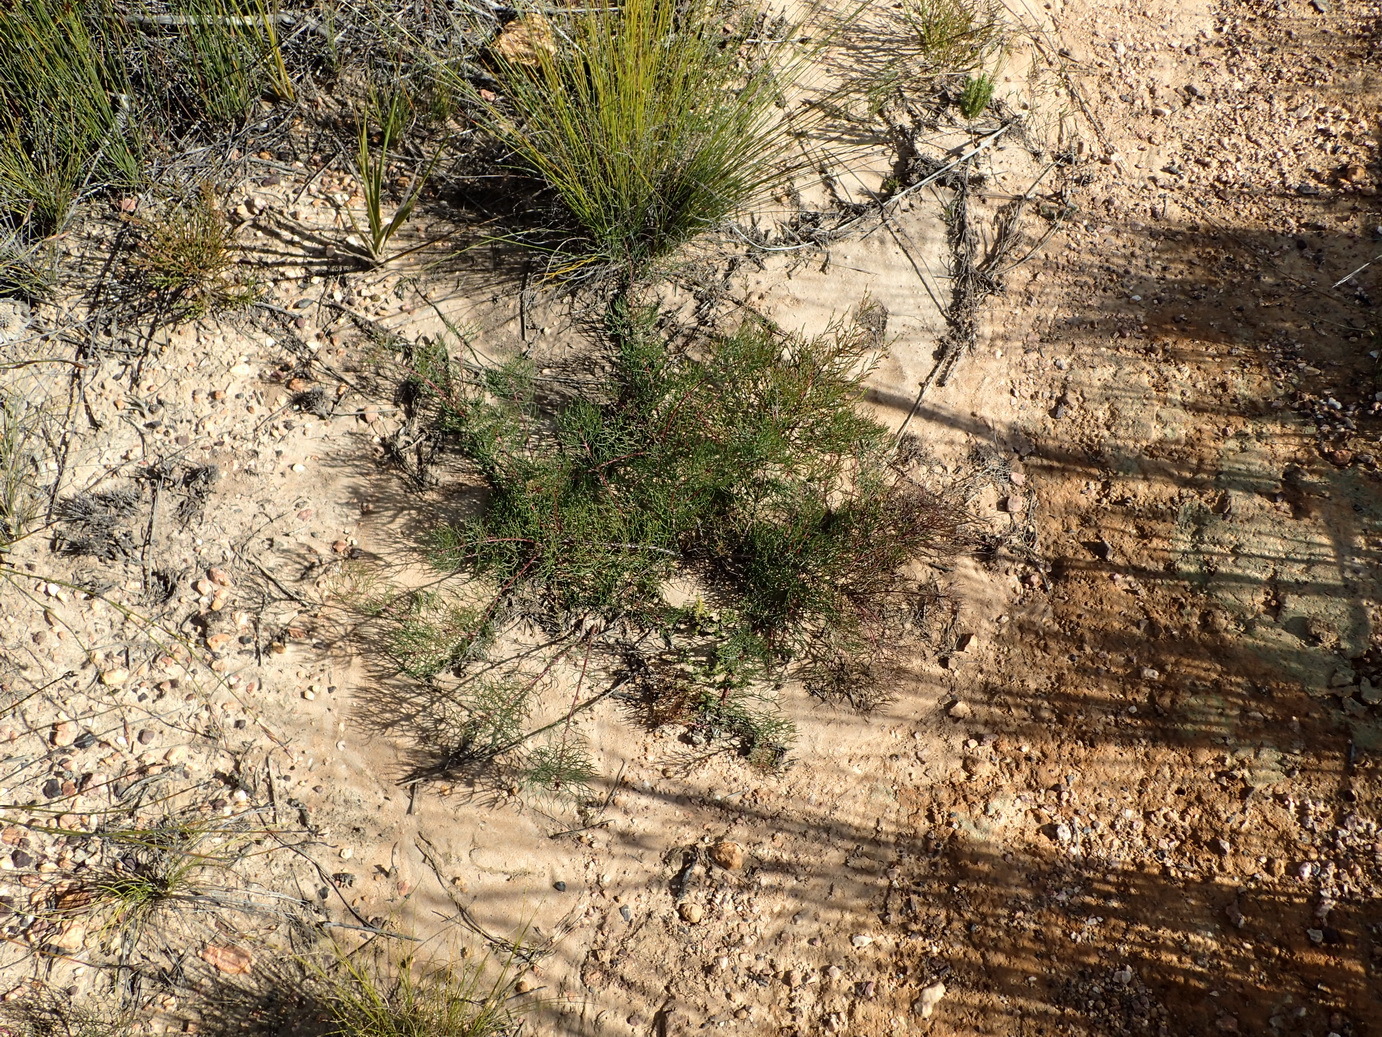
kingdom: Plantae
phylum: Tracheophyta
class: Magnoliopsida
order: Proteales
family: Proteaceae
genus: Serruria
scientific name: Serruria fasciflora
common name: Common pin spiderhead
